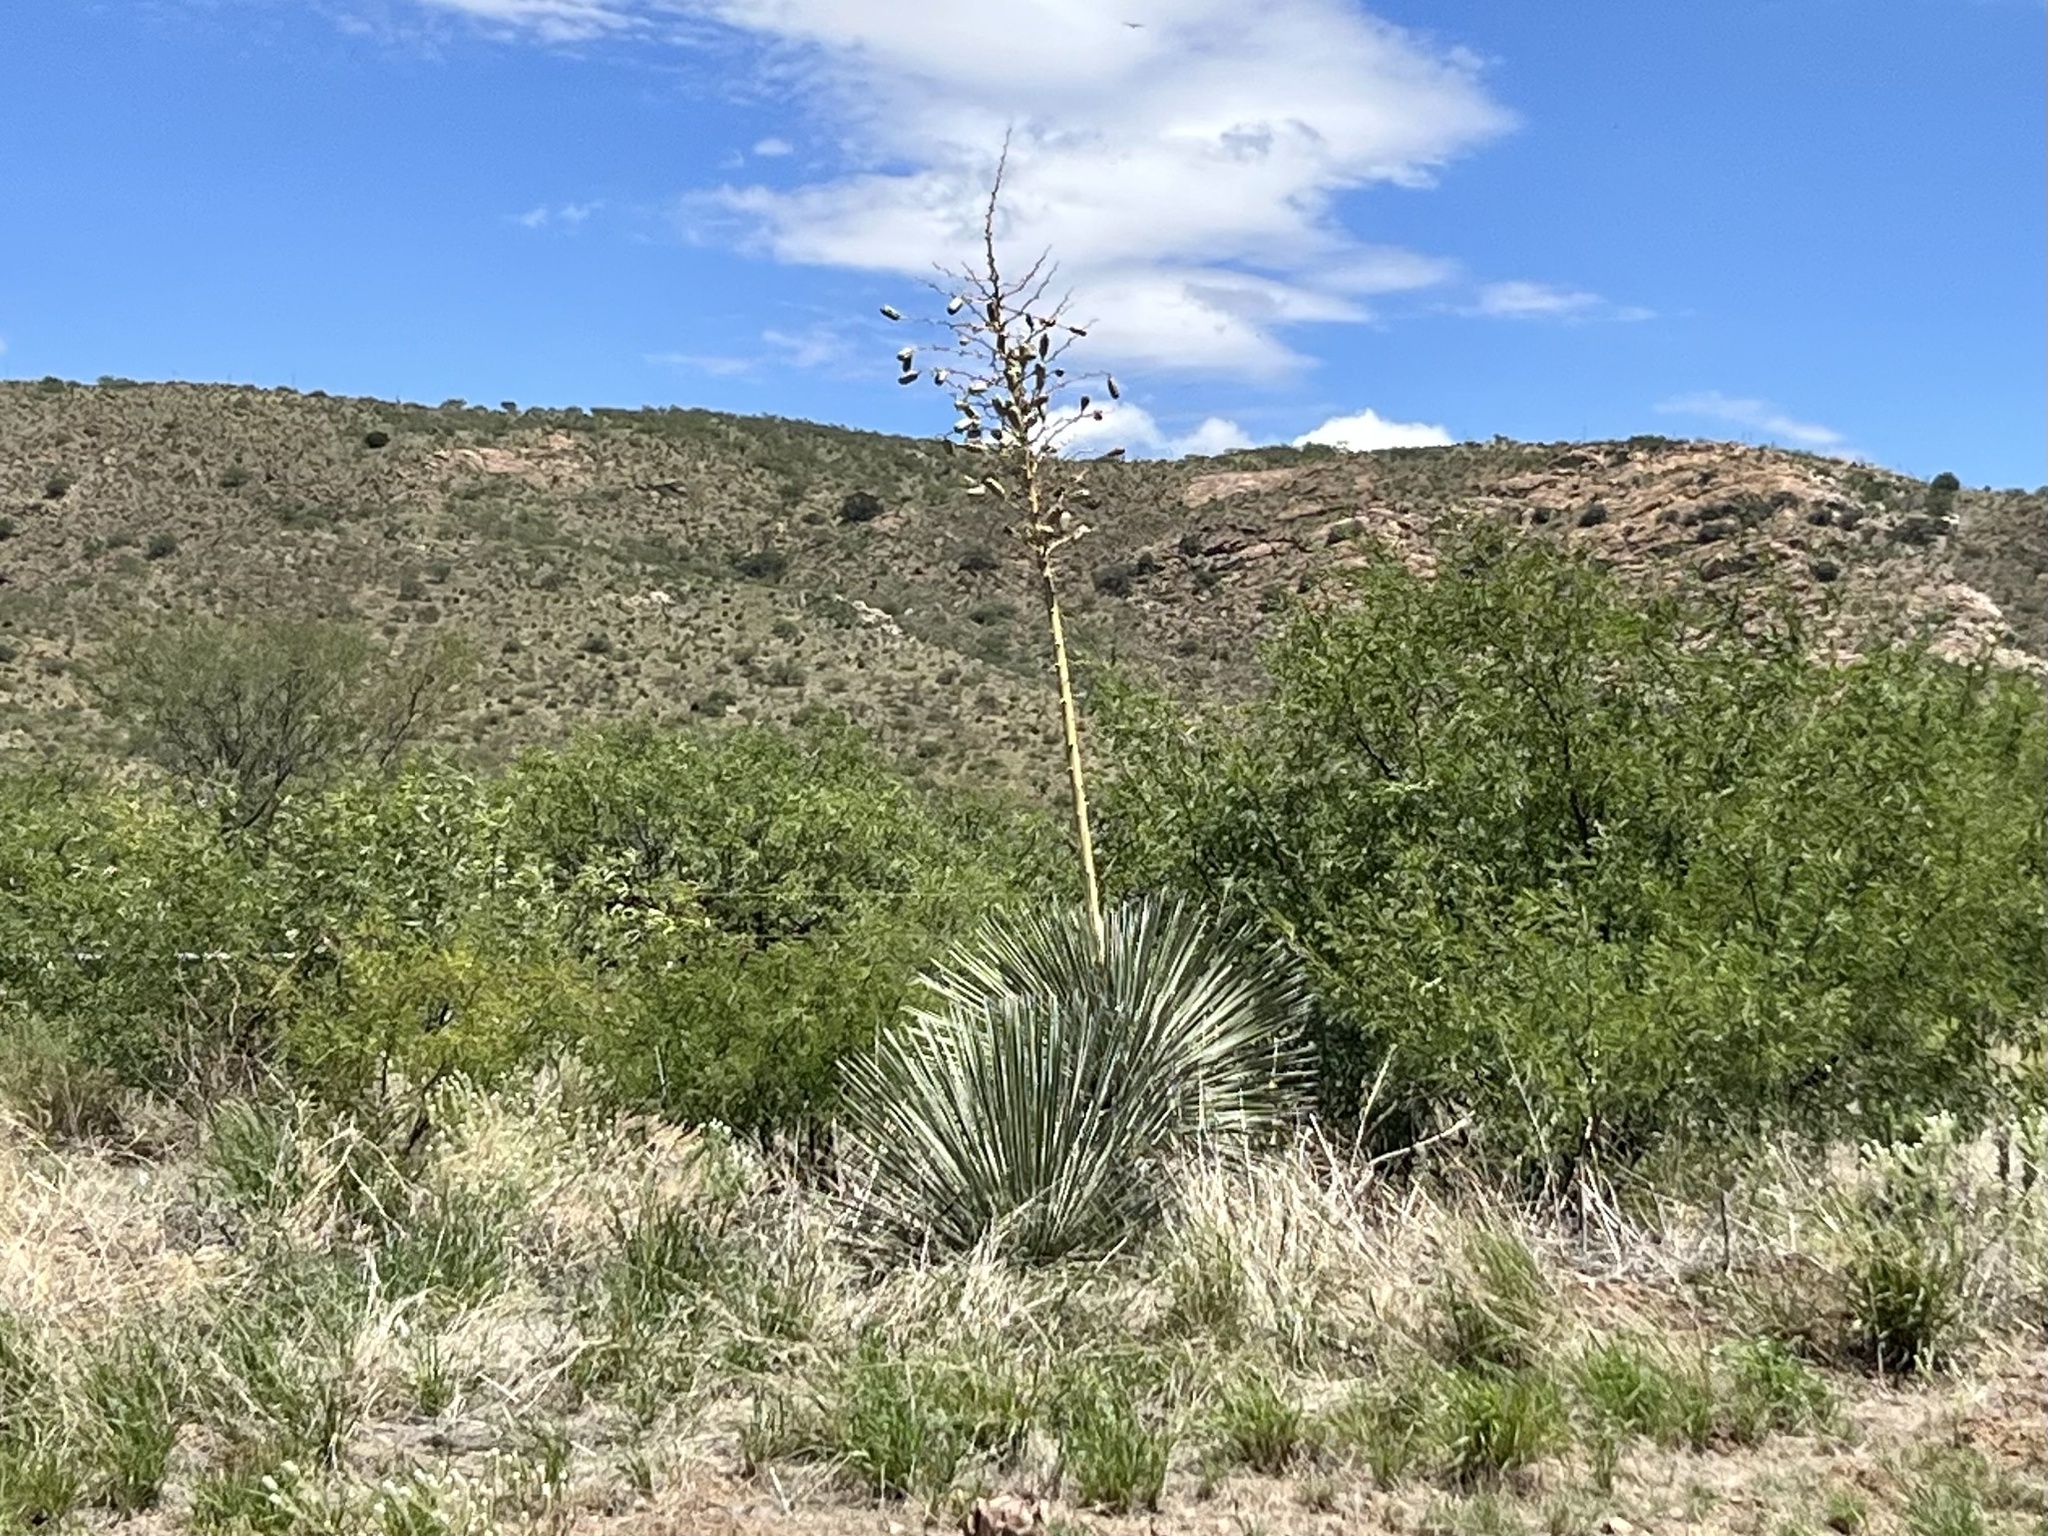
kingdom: Plantae
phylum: Tracheophyta
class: Liliopsida
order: Asparagales
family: Asparagaceae
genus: Yucca
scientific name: Yucca elata
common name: Palmella
